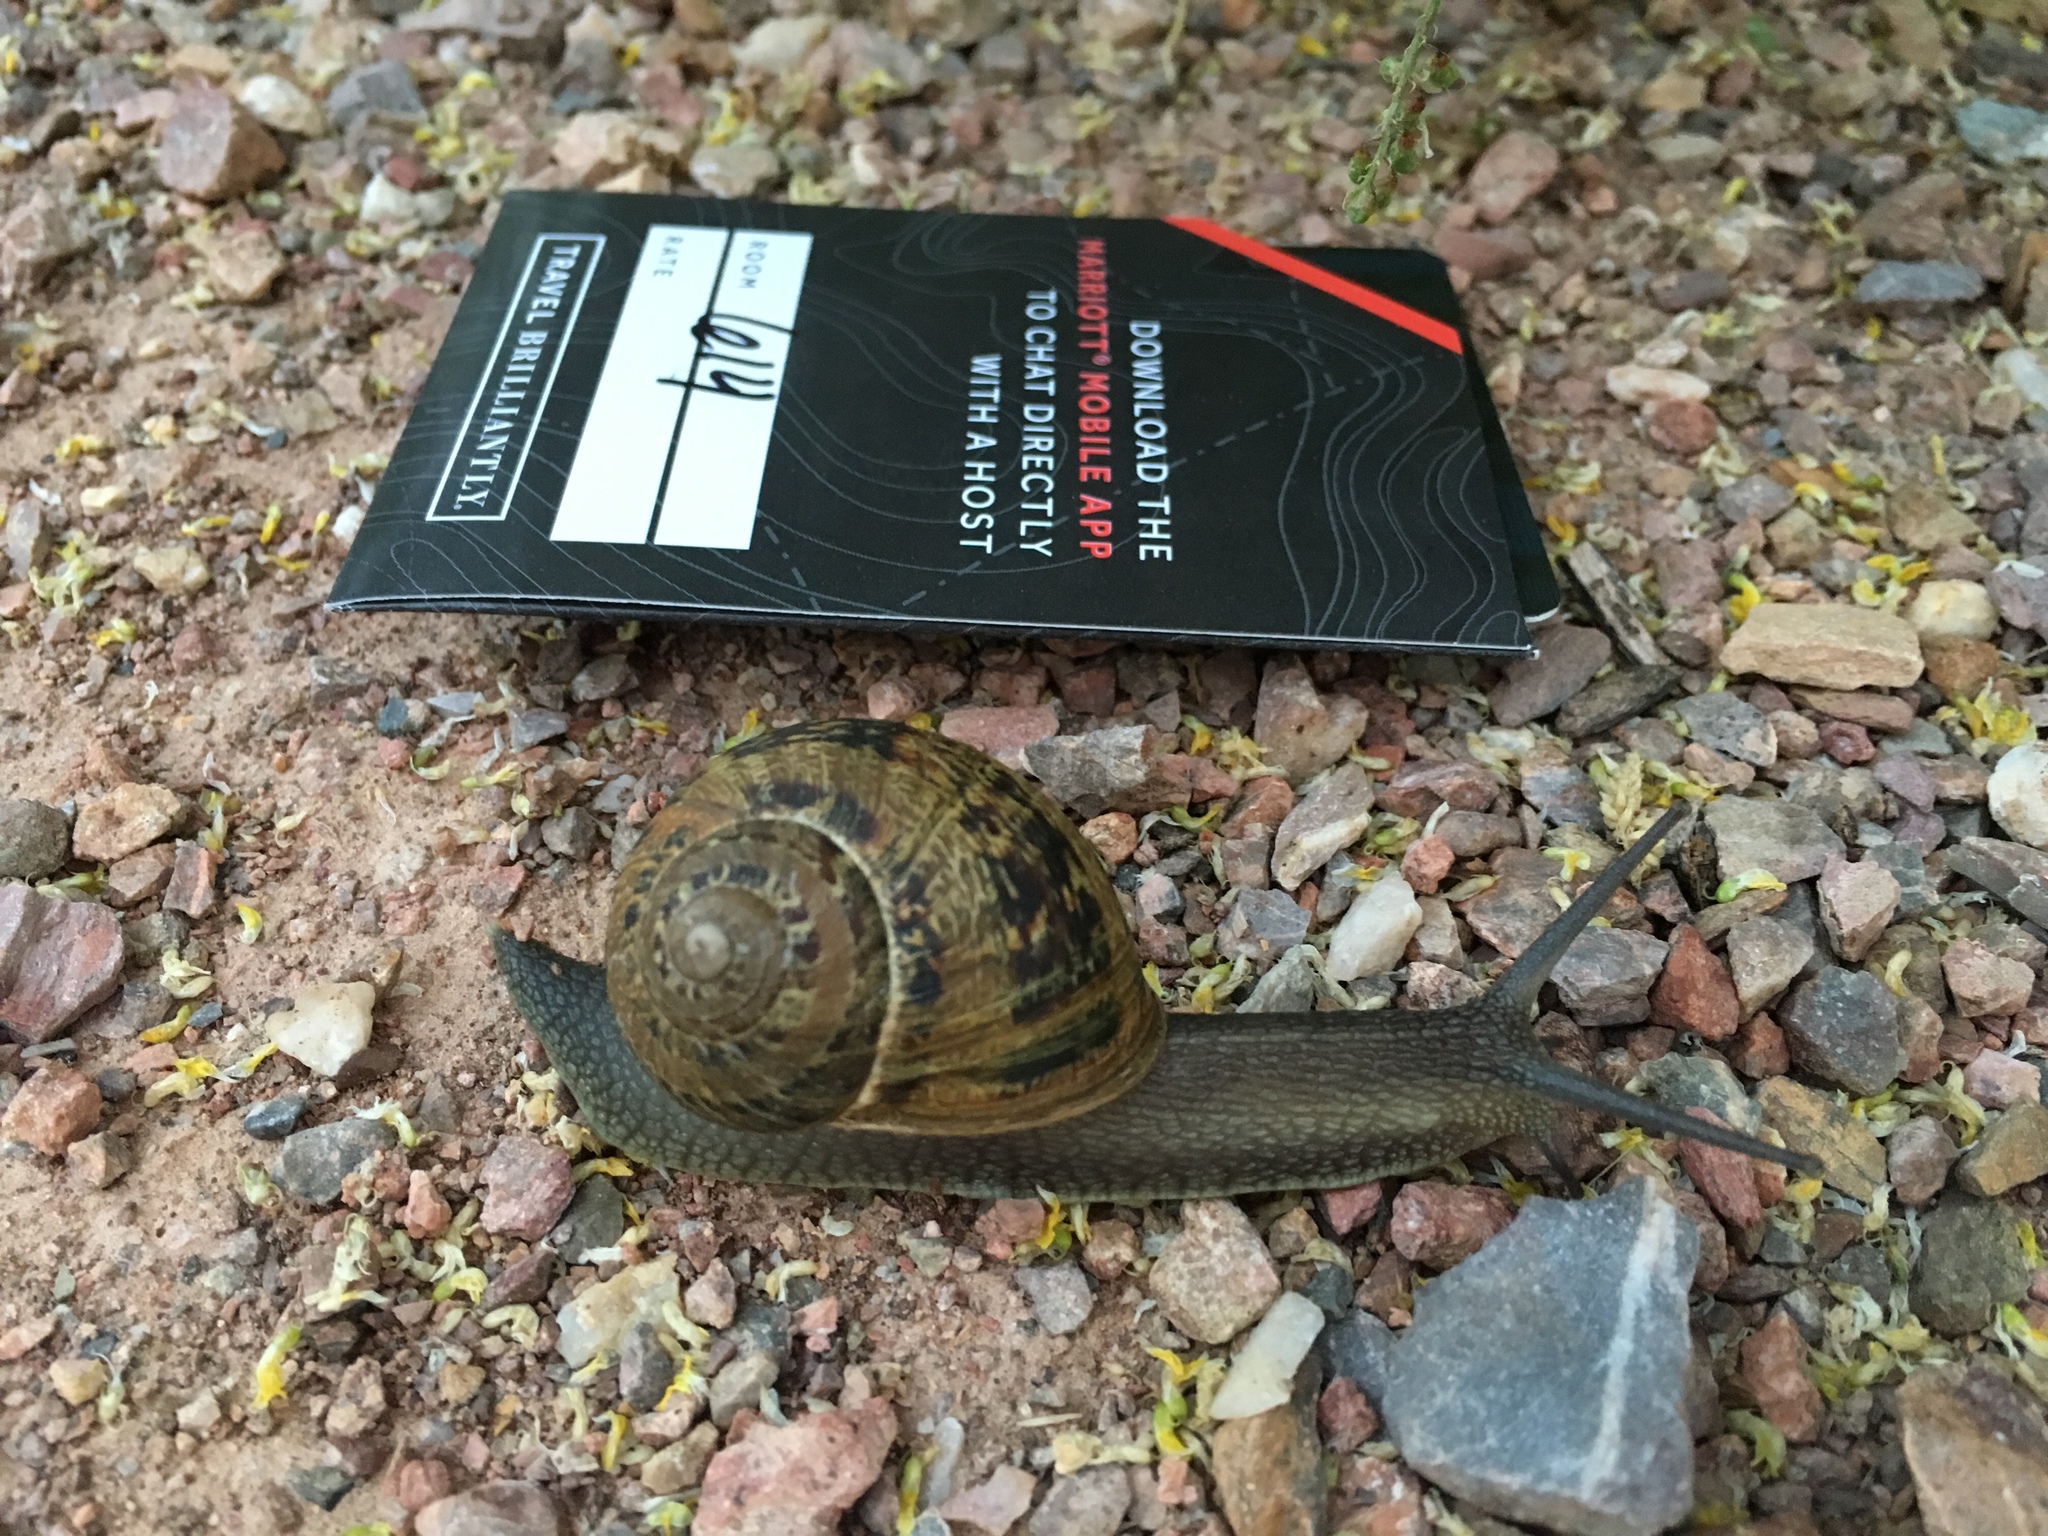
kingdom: Animalia
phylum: Mollusca
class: Gastropoda
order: Stylommatophora
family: Helicidae
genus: Cornu
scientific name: Cornu aspersum
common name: Brown garden snail
